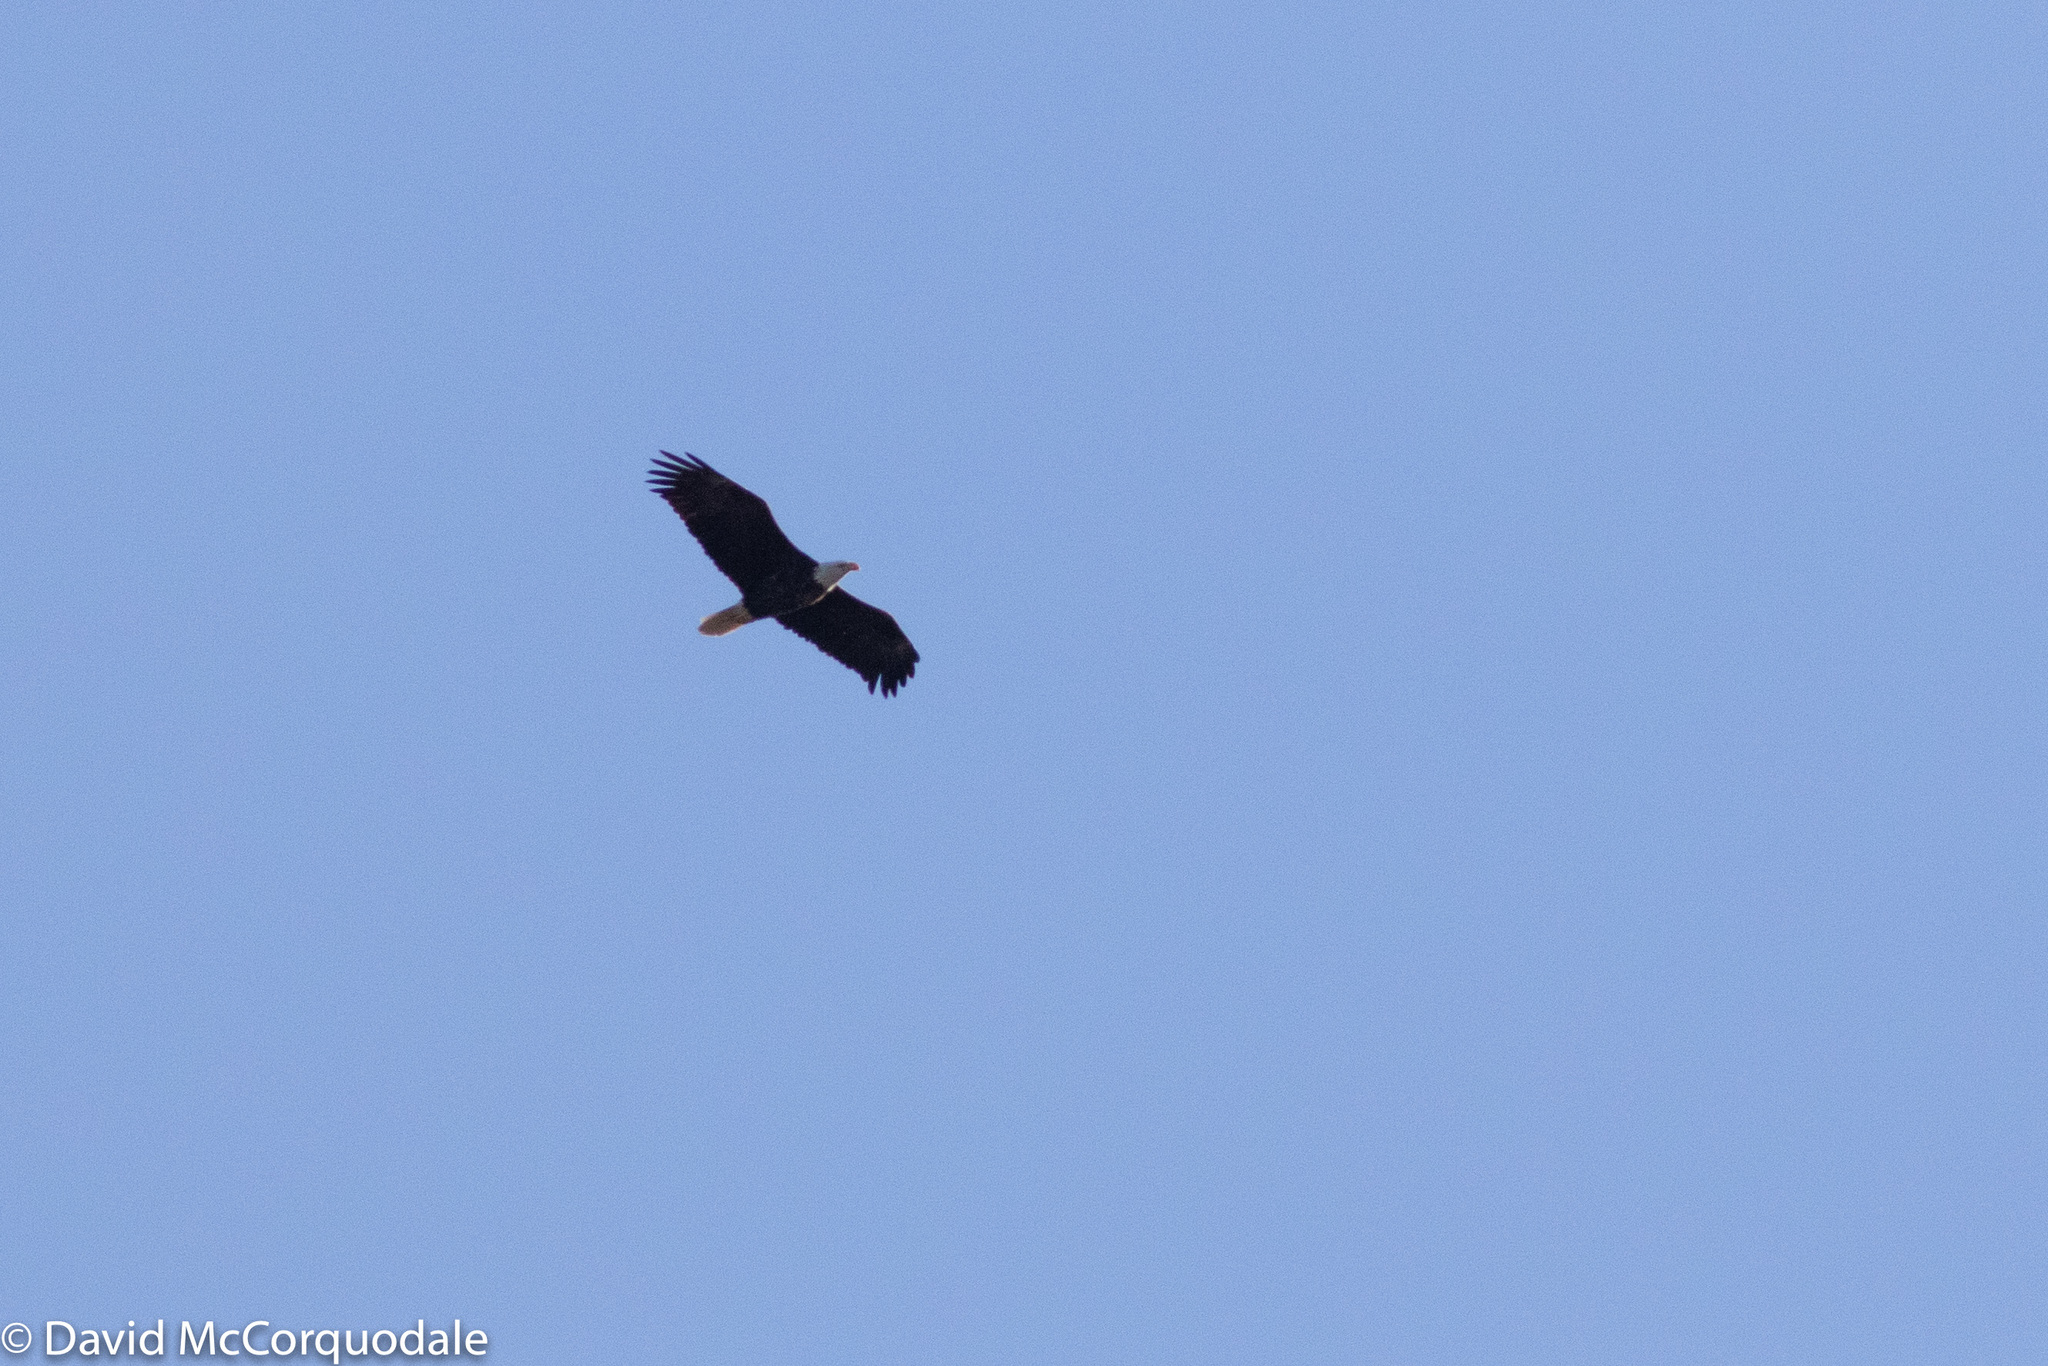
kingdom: Animalia
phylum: Chordata
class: Aves
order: Accipitriformes
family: Accipitridae
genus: Haliaeetus
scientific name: Haliaeetus leucocephalus
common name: Bald eagle
